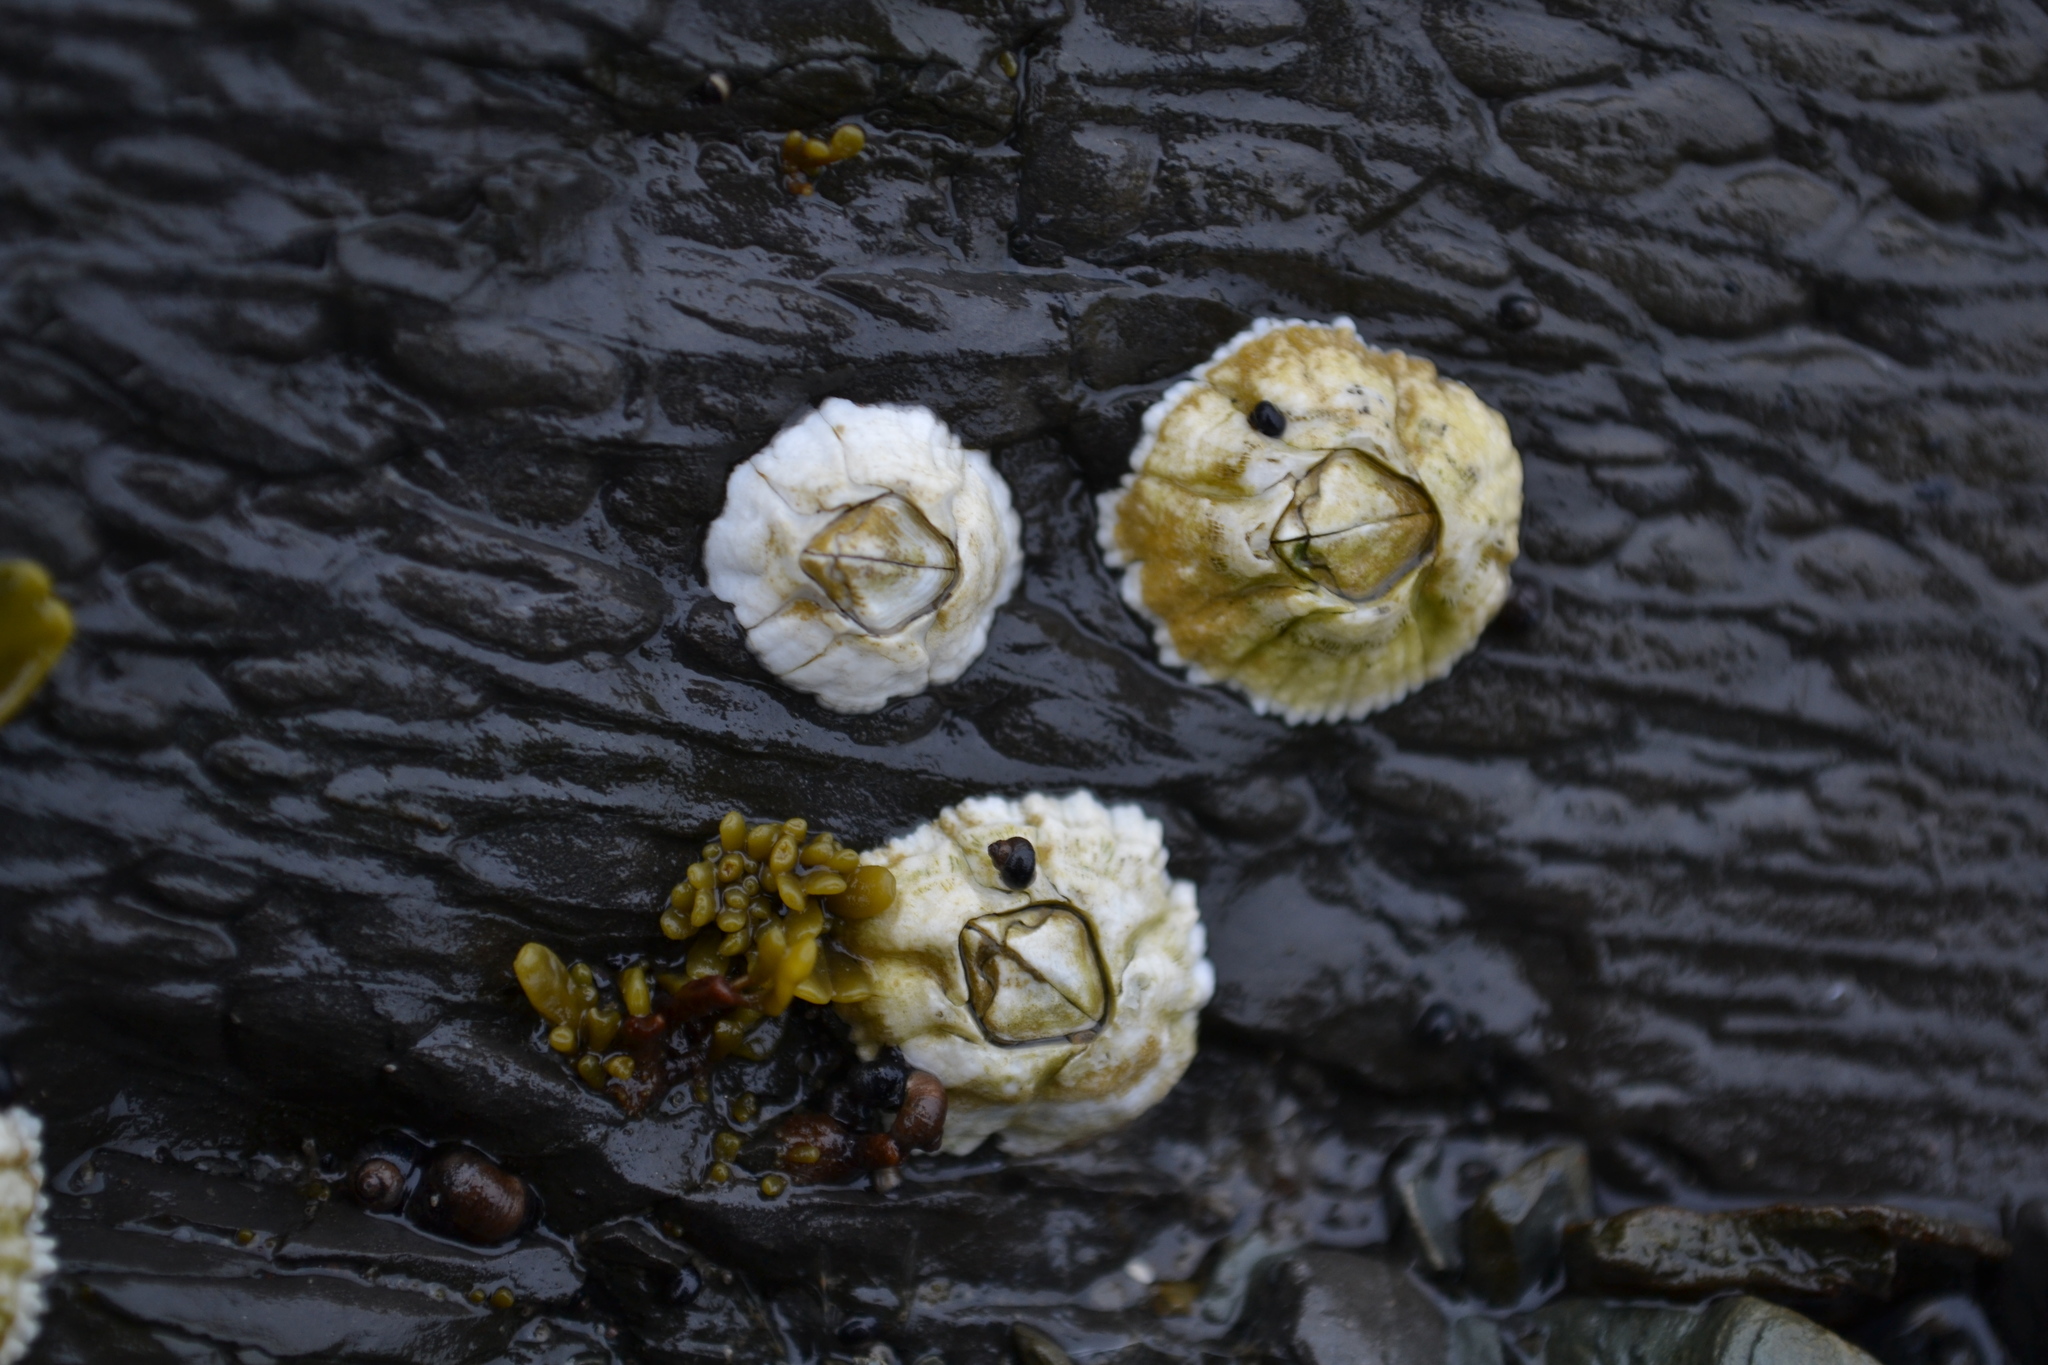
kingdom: Animalia
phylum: Arthropoda
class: Maxillopoda
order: Sessilia
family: Archaeobalanidae
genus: Semibalanus
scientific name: Semibalanus balanoides
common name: Acorn barnacle
